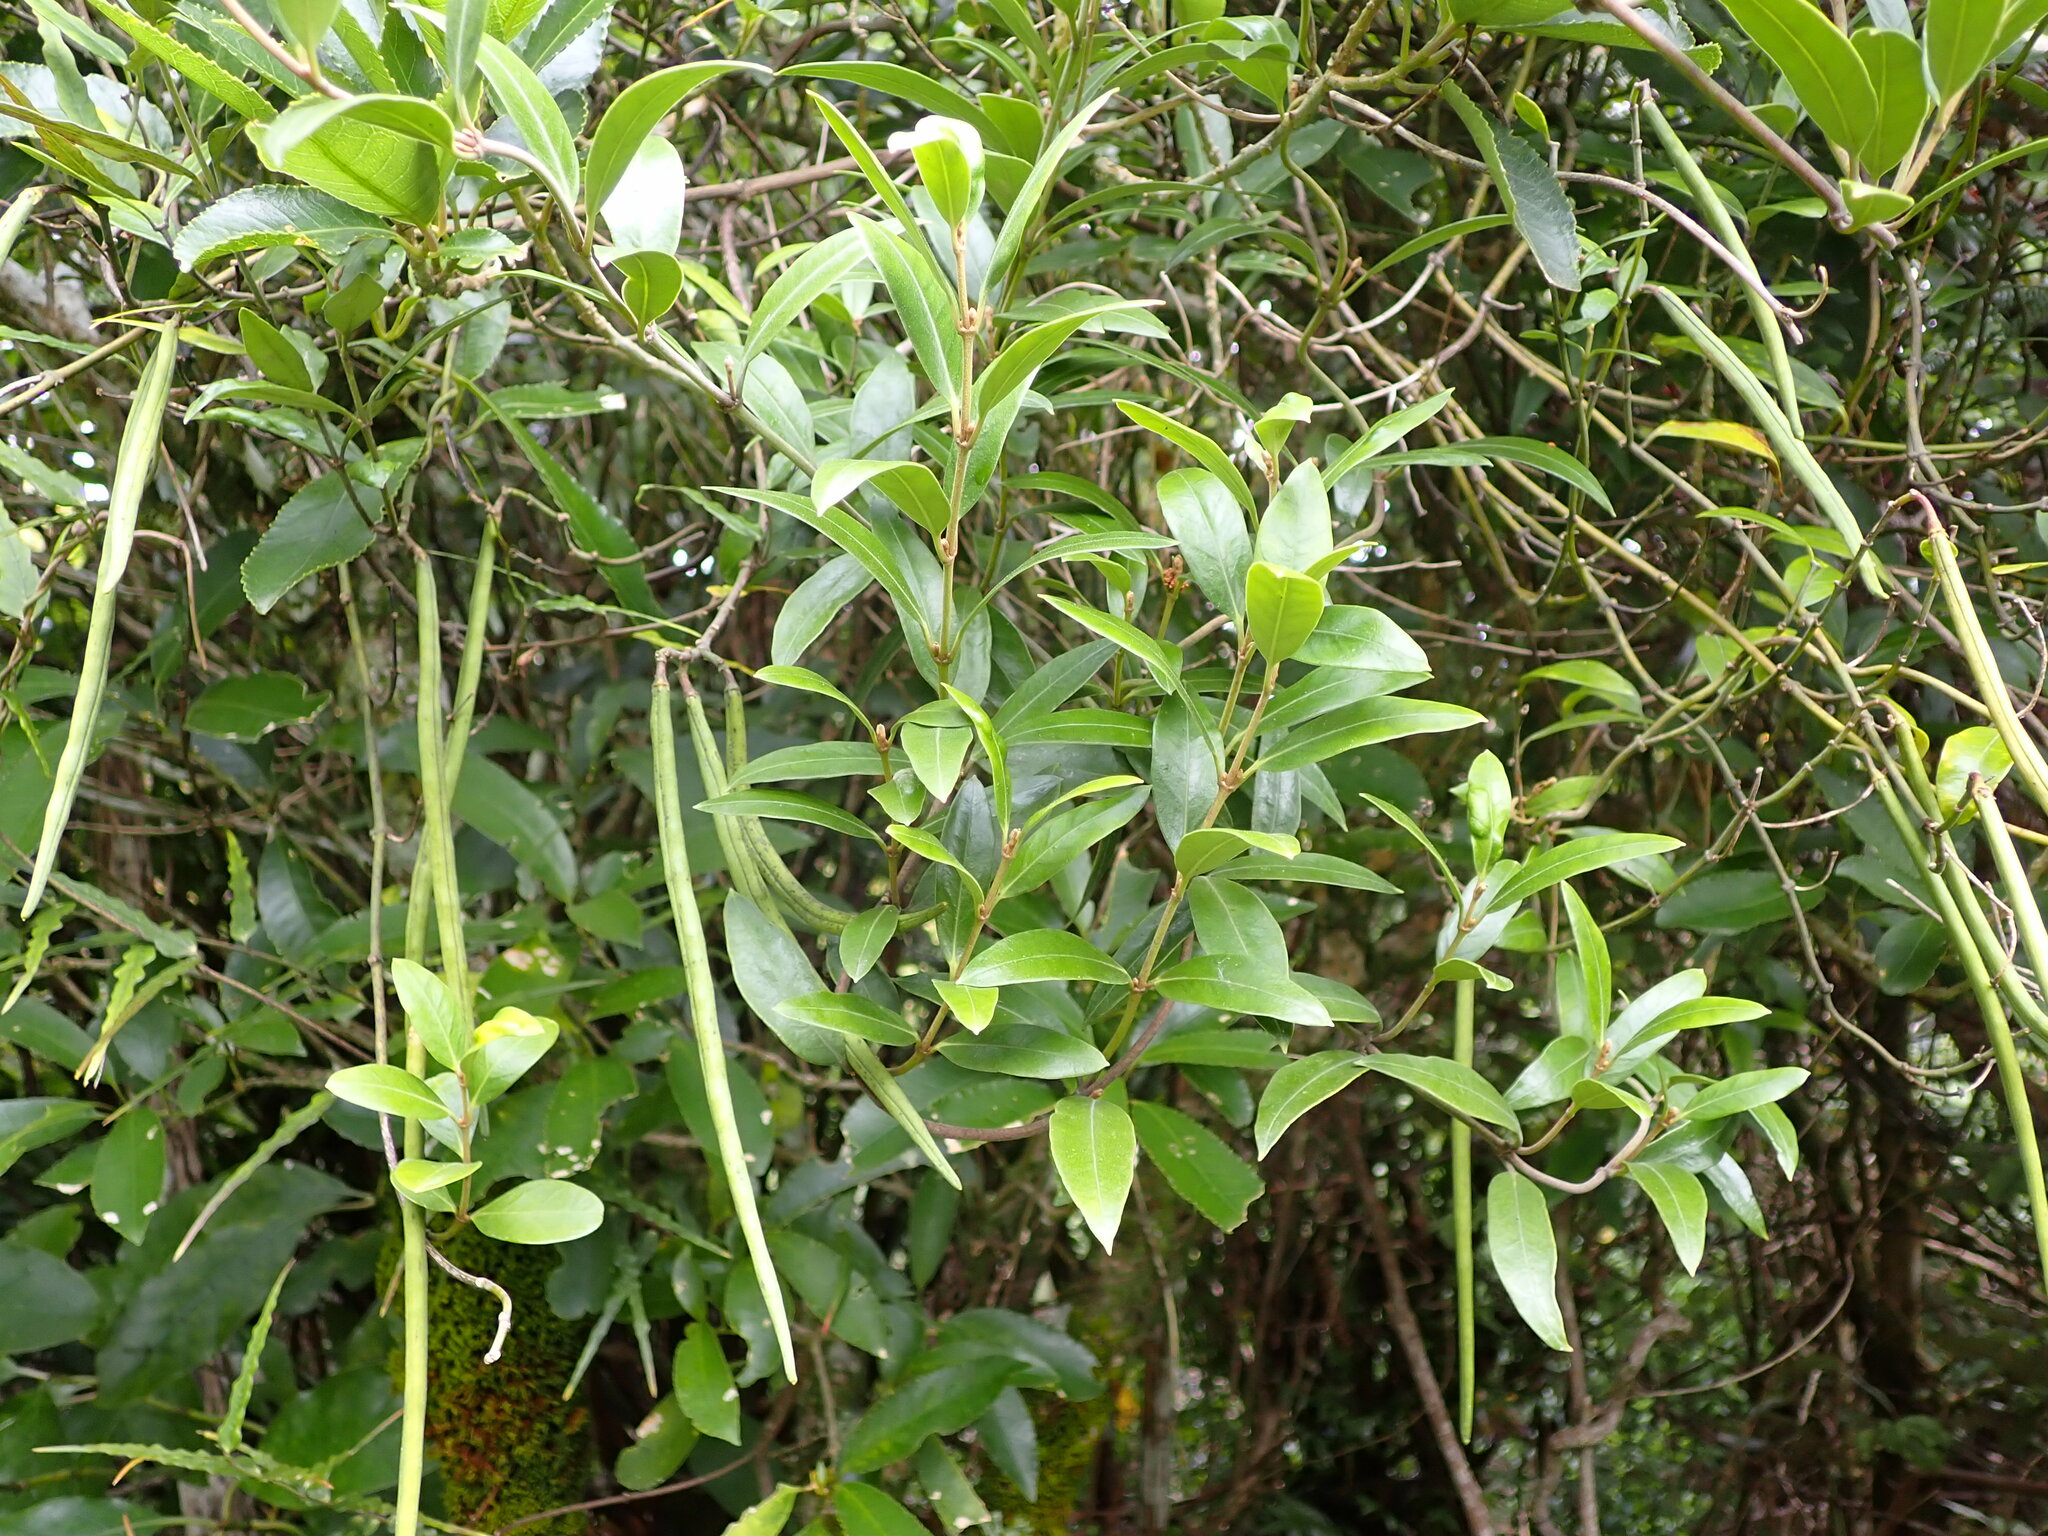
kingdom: Plantae
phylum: Tracheophyta
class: Magnoliopsida
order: Gentianales
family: Apocynaceae
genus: Parsonsia
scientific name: Parsonsia heterophylla
